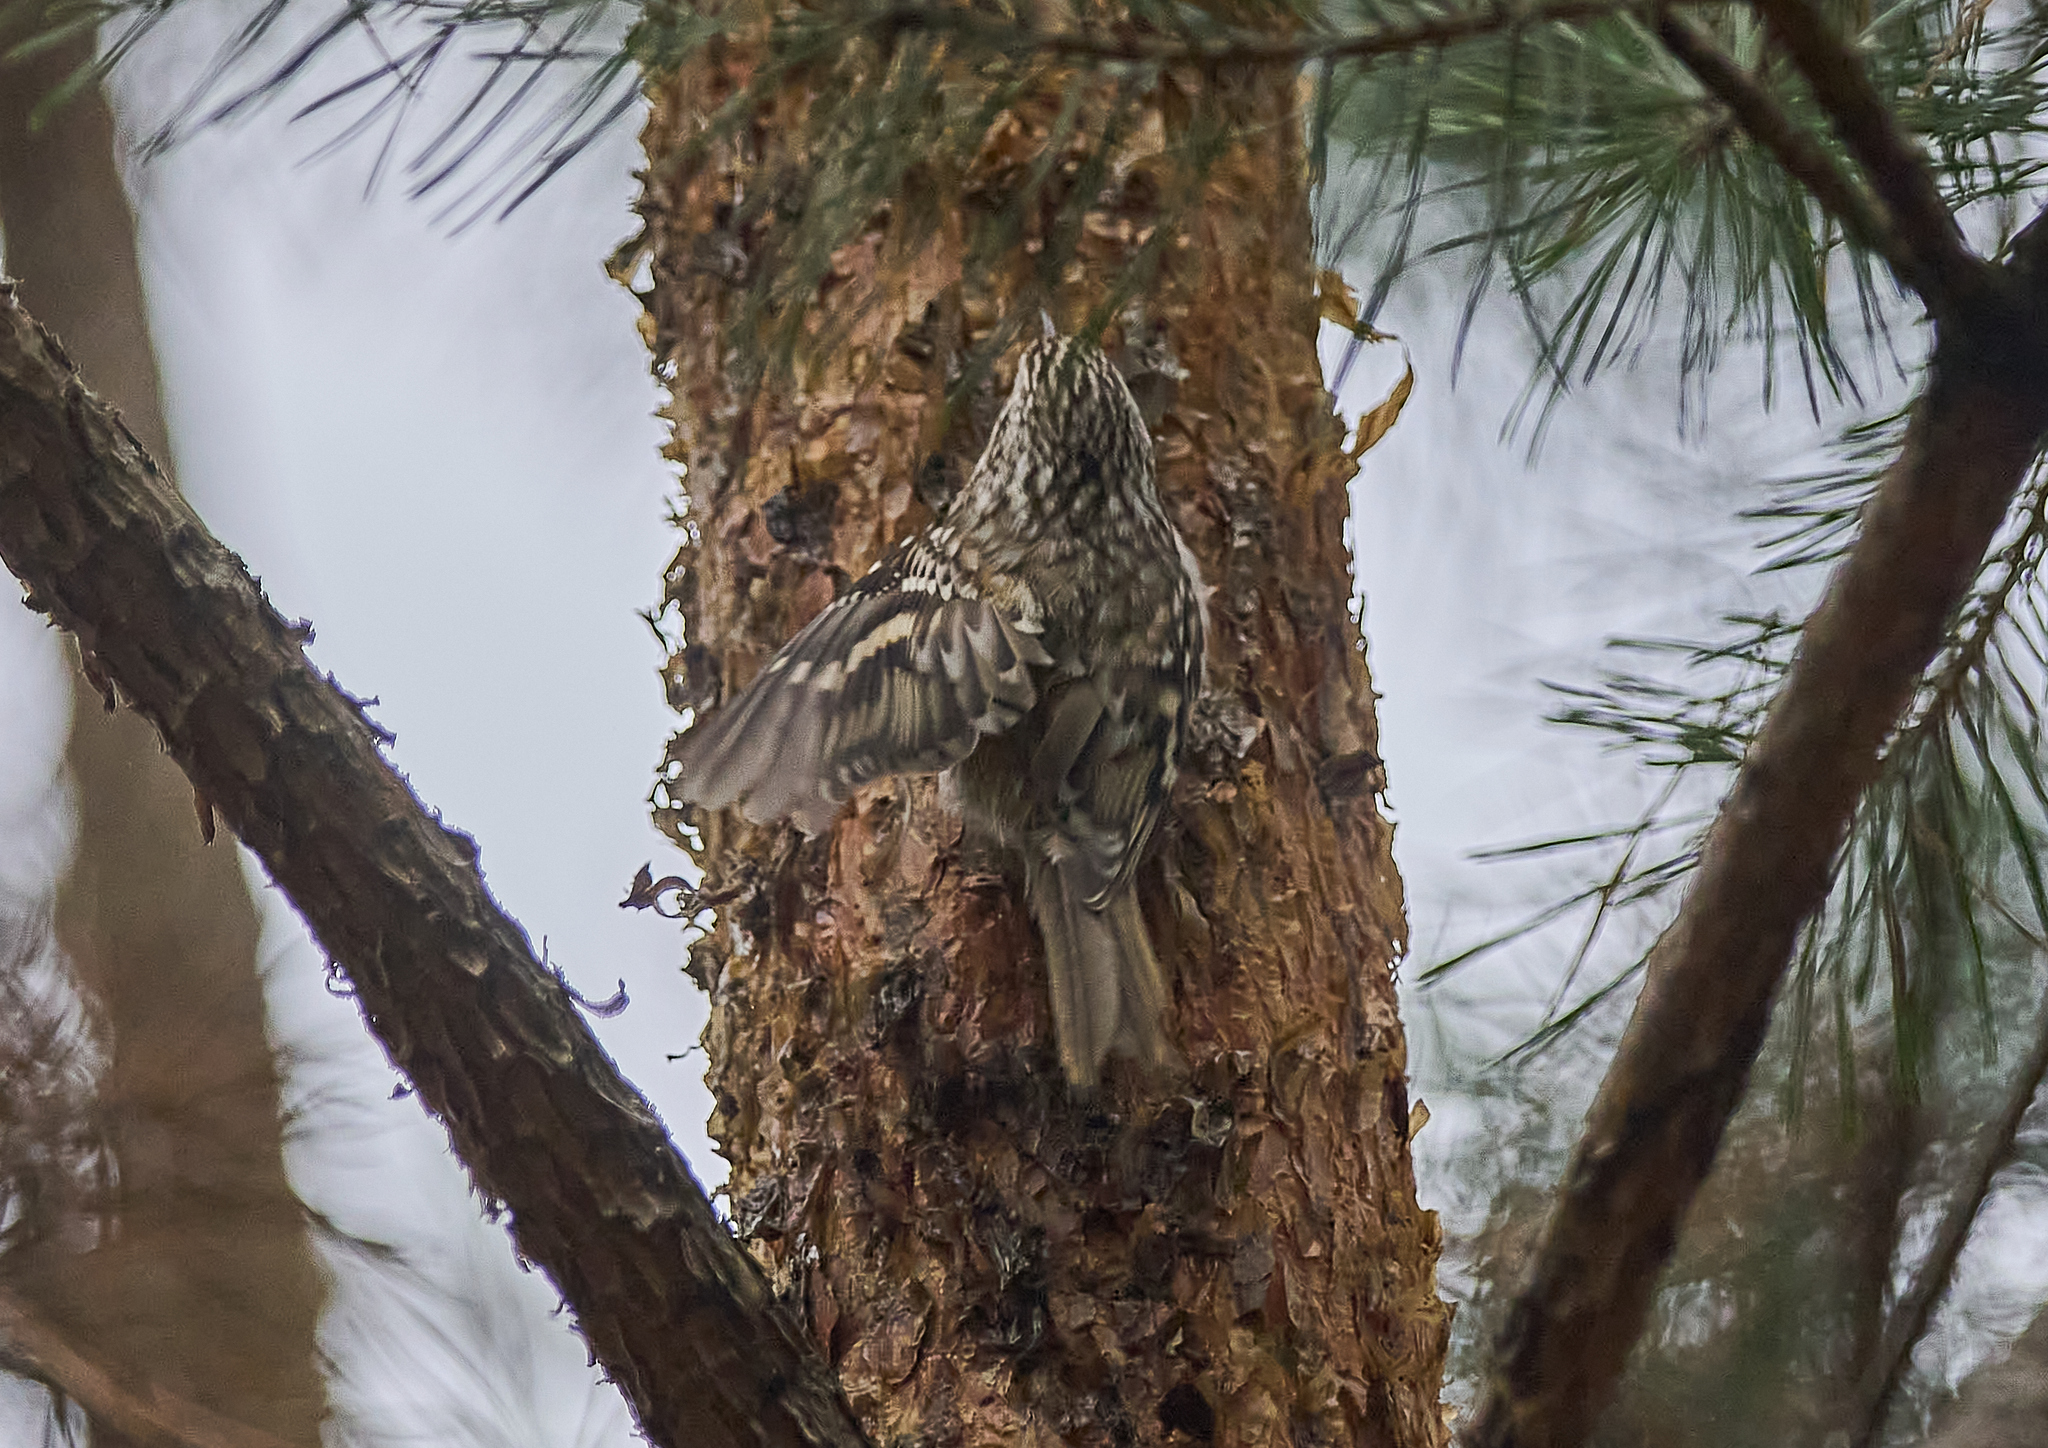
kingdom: Animalia
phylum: Chordata
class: Aves
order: Passeriformes
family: Certhiidae
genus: Certhia
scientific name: Certhia familiaris
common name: Eurasian treecreeper
